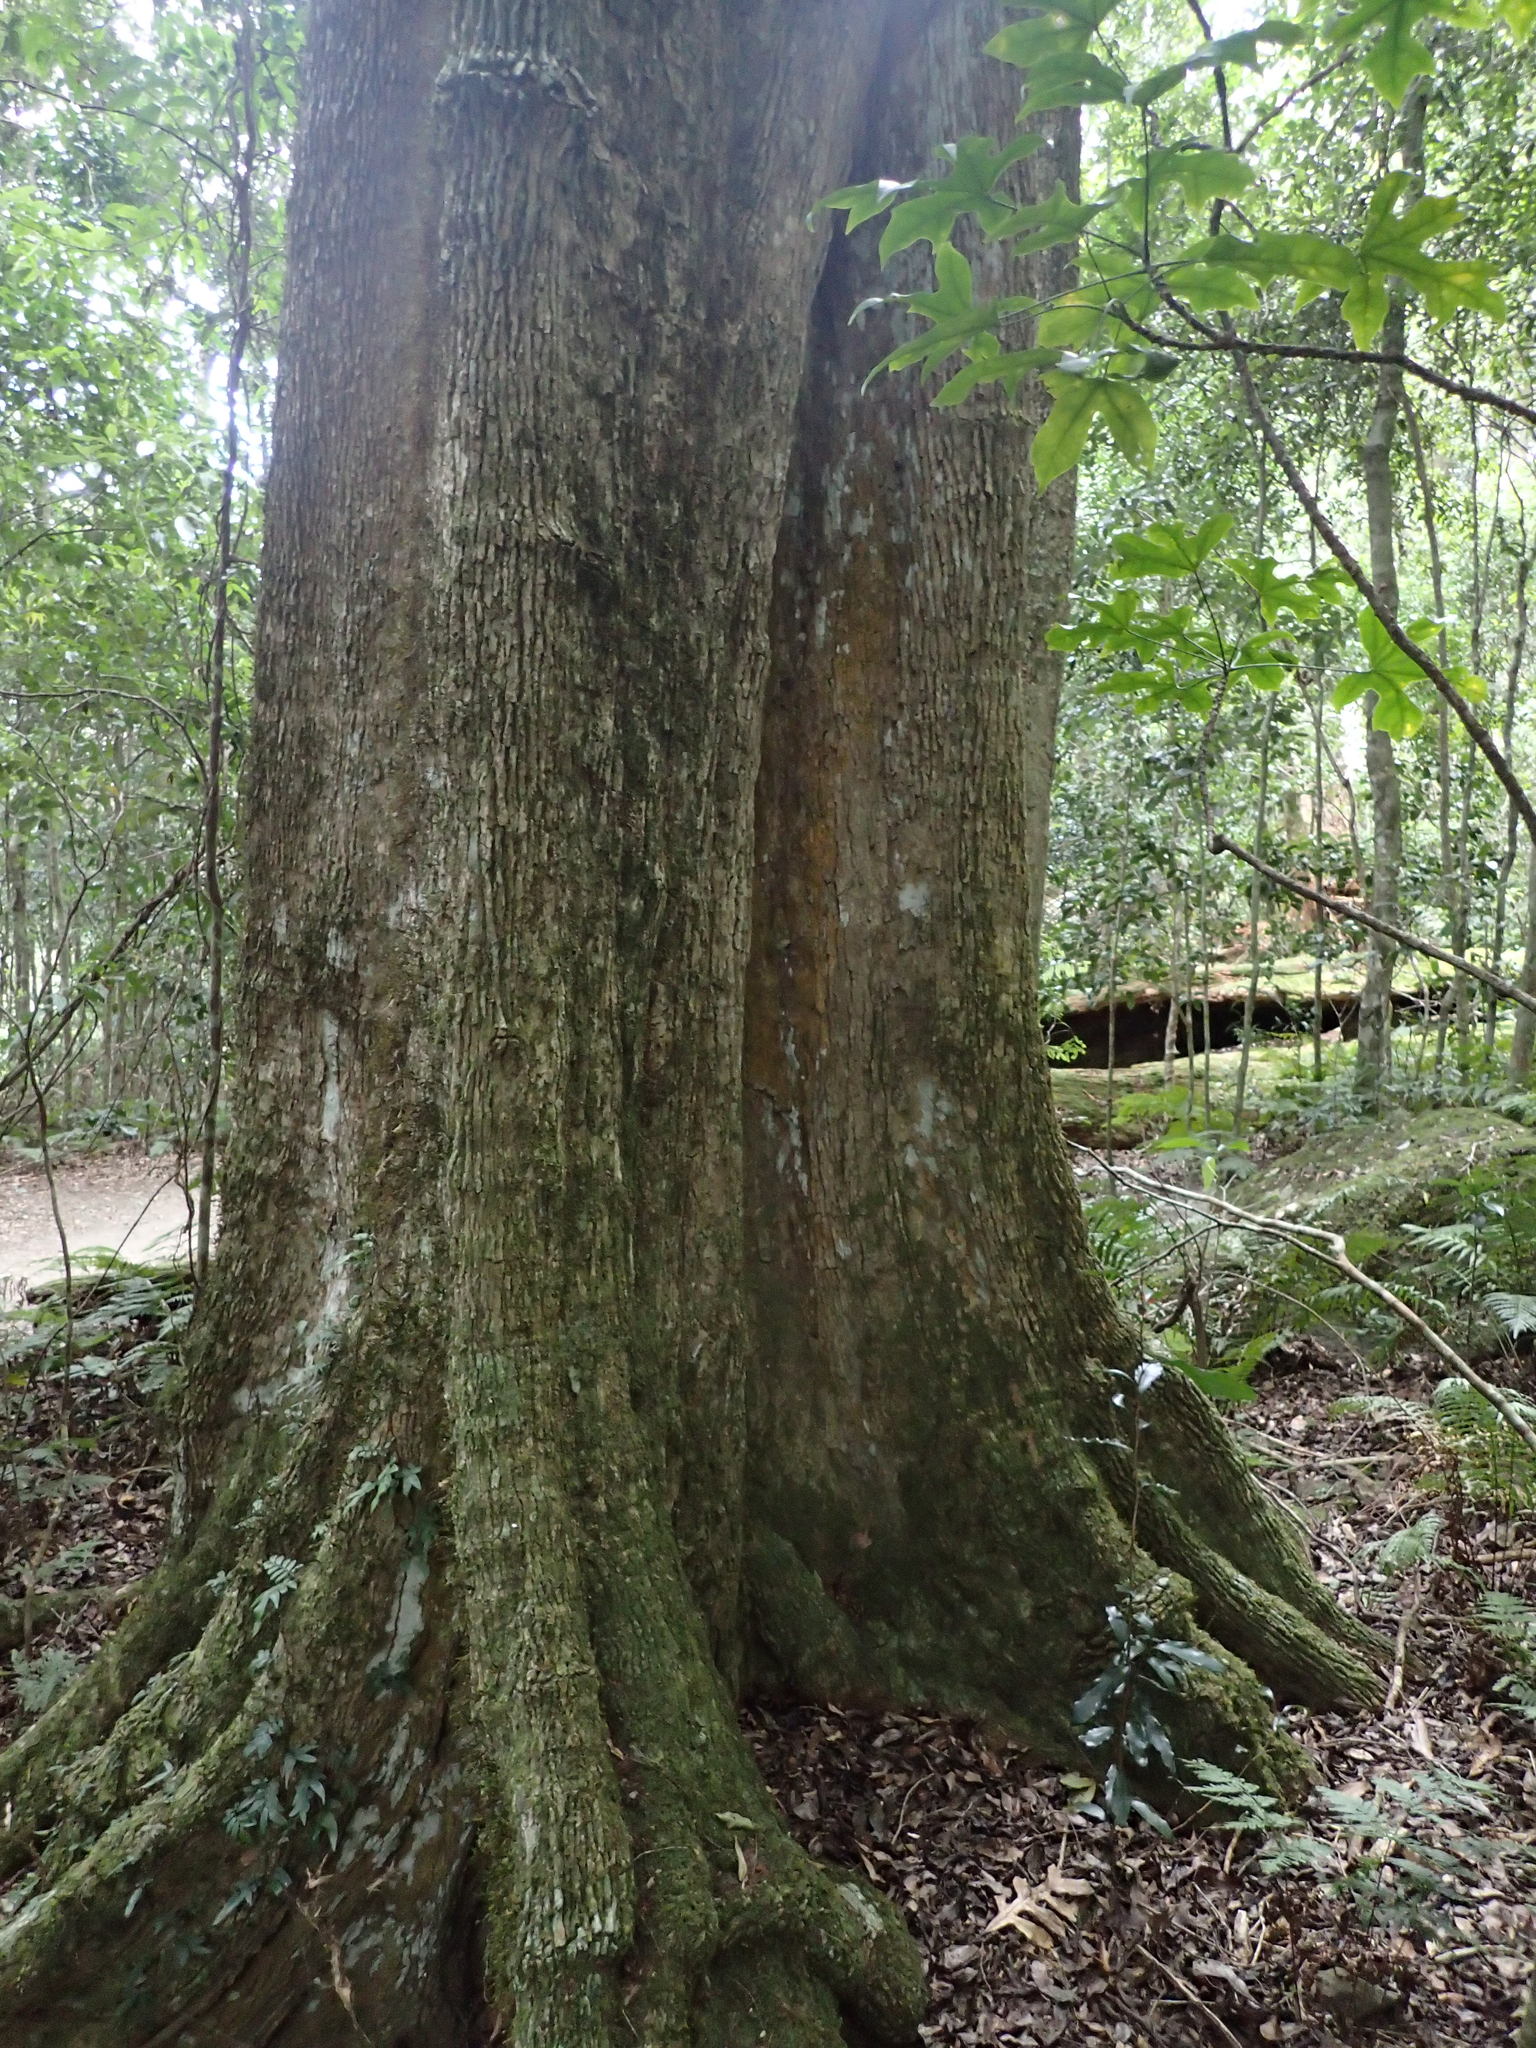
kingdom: Plantae
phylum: Tracheophyta
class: Magnoliopsida
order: Cardiopteridales
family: Cardiopteridaceae
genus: Citronella
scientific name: Citronella moorei
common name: Churnwood
